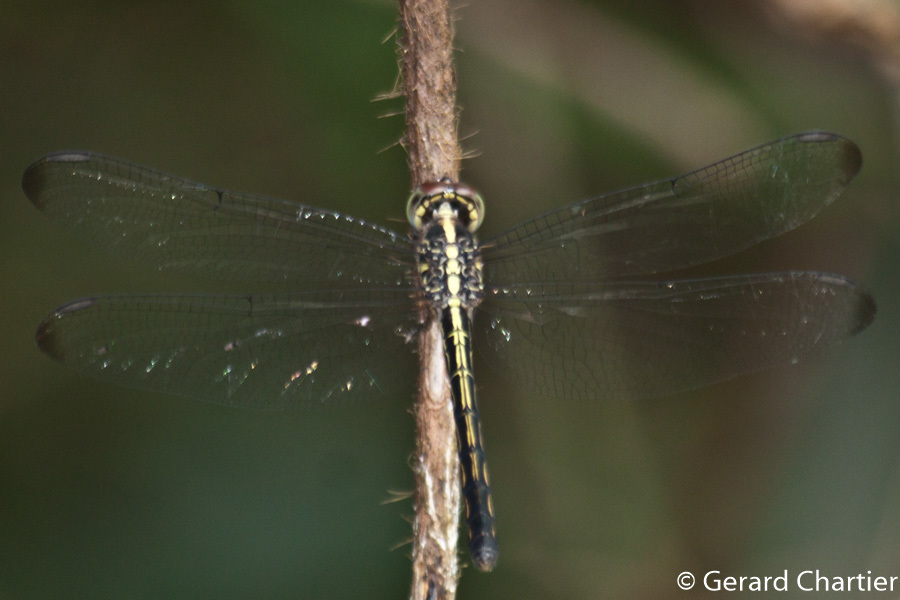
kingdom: Animalia
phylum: Arthropoda
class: Insecta
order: Odonata
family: Libellulidae
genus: Cratilla
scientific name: Cratilla lineata
